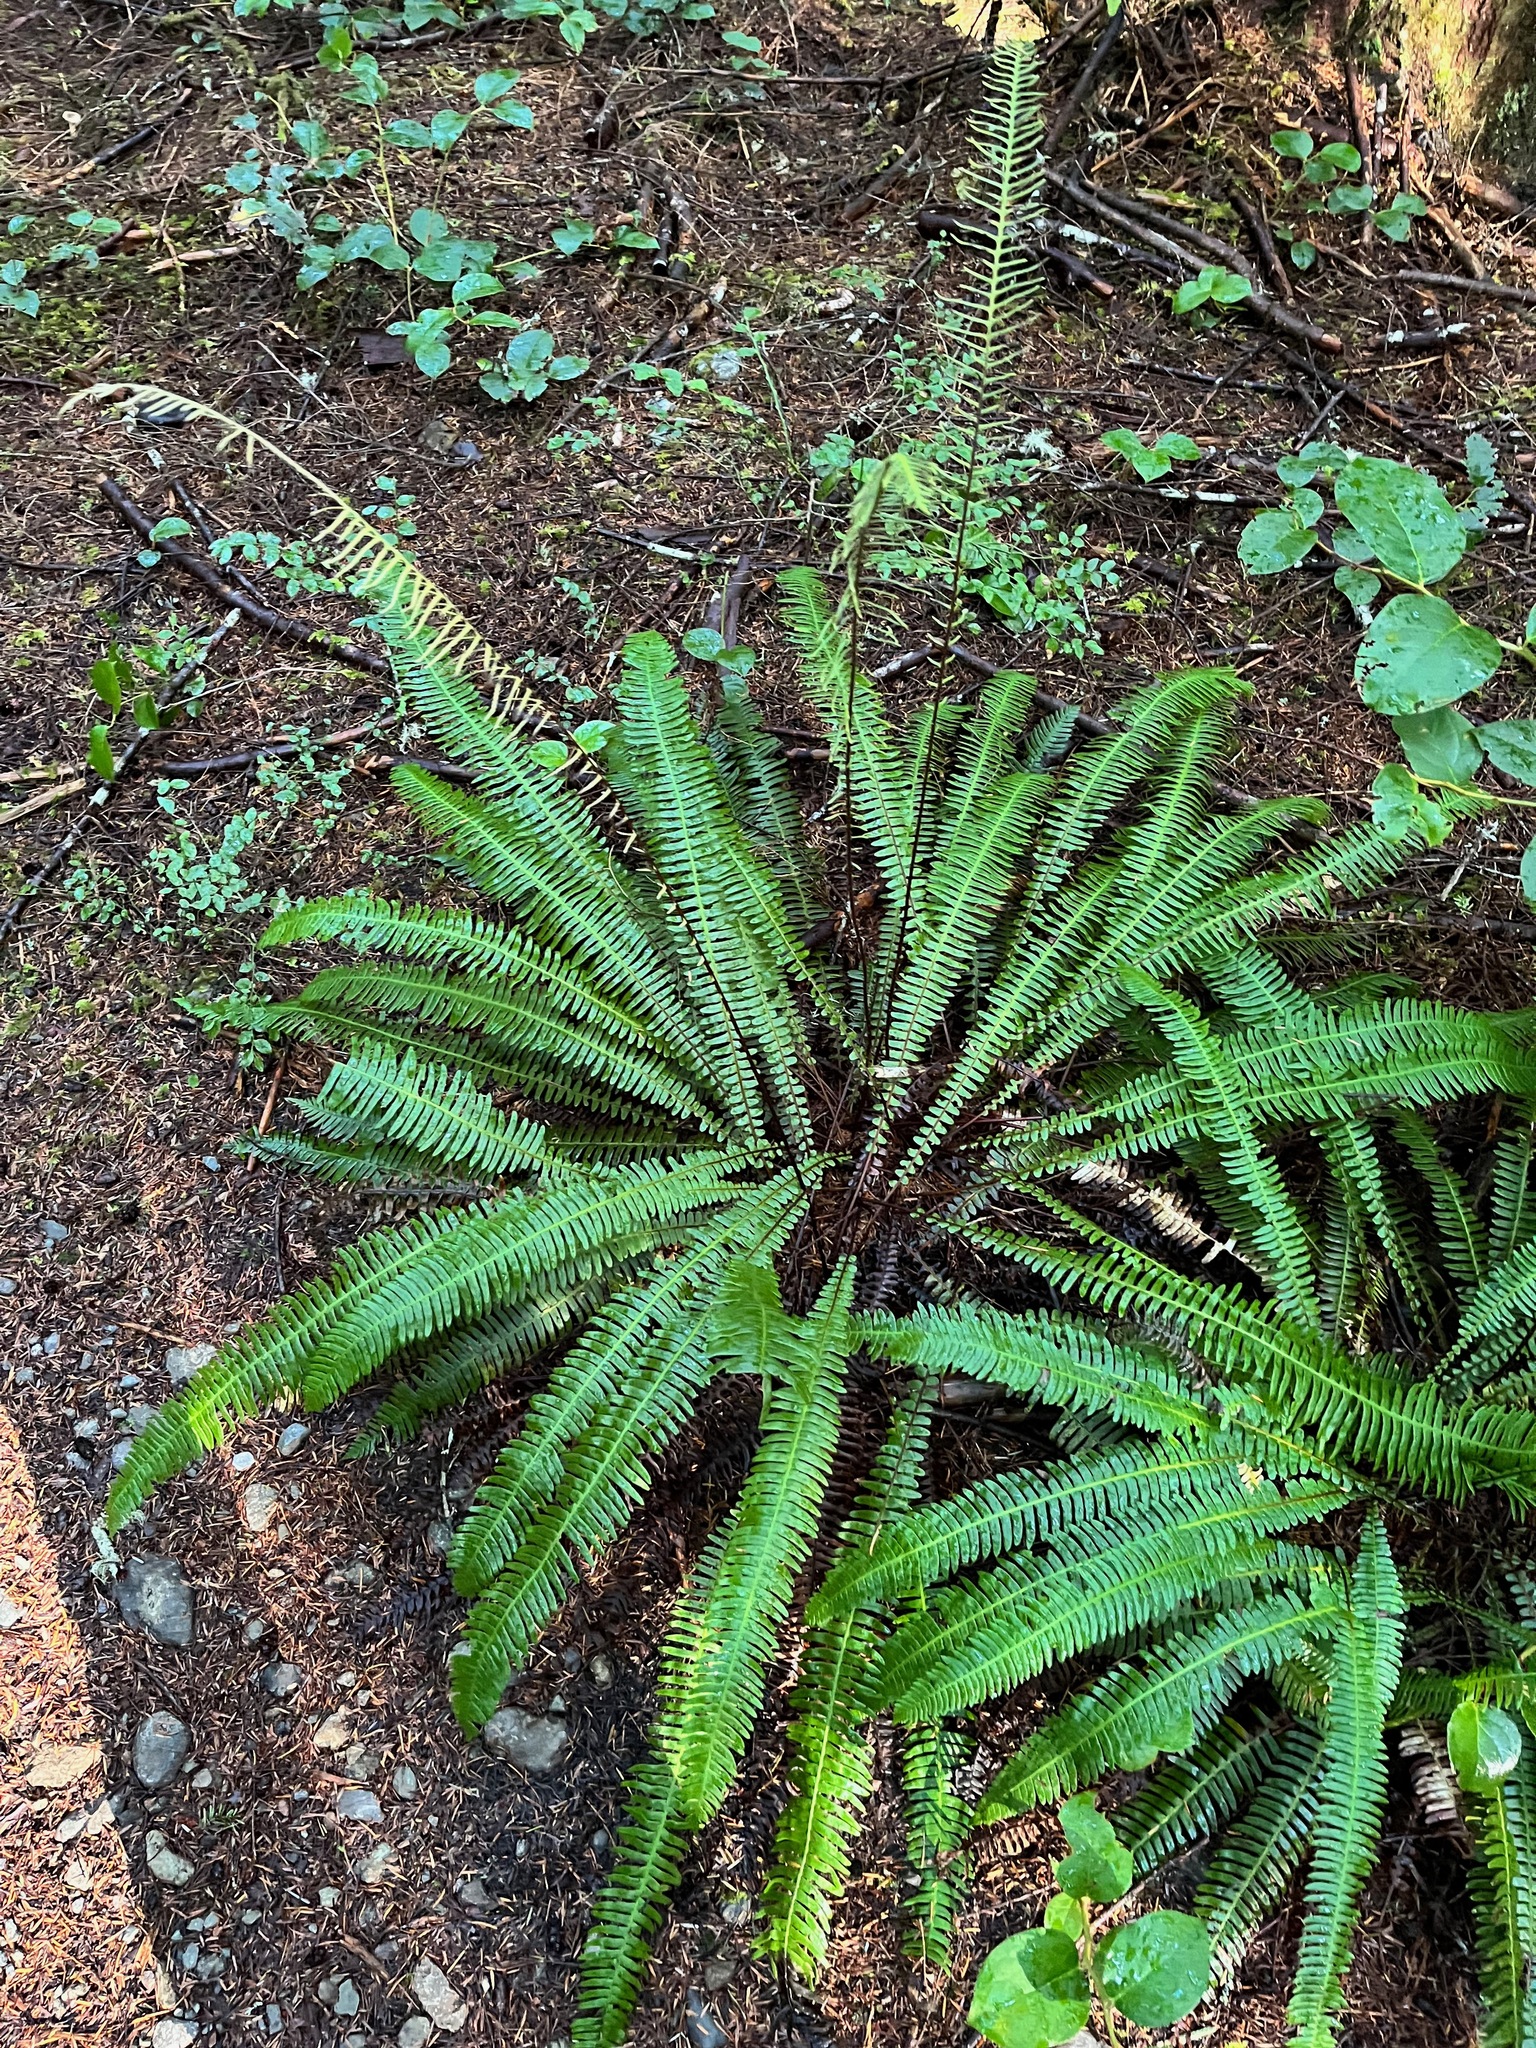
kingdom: Plantae
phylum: Tracheophyta
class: Polypodiopsida
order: Polypodiales
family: Blechnaceae
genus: Struthiopteris
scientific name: Struthiopteris spicant
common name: Deer fern
